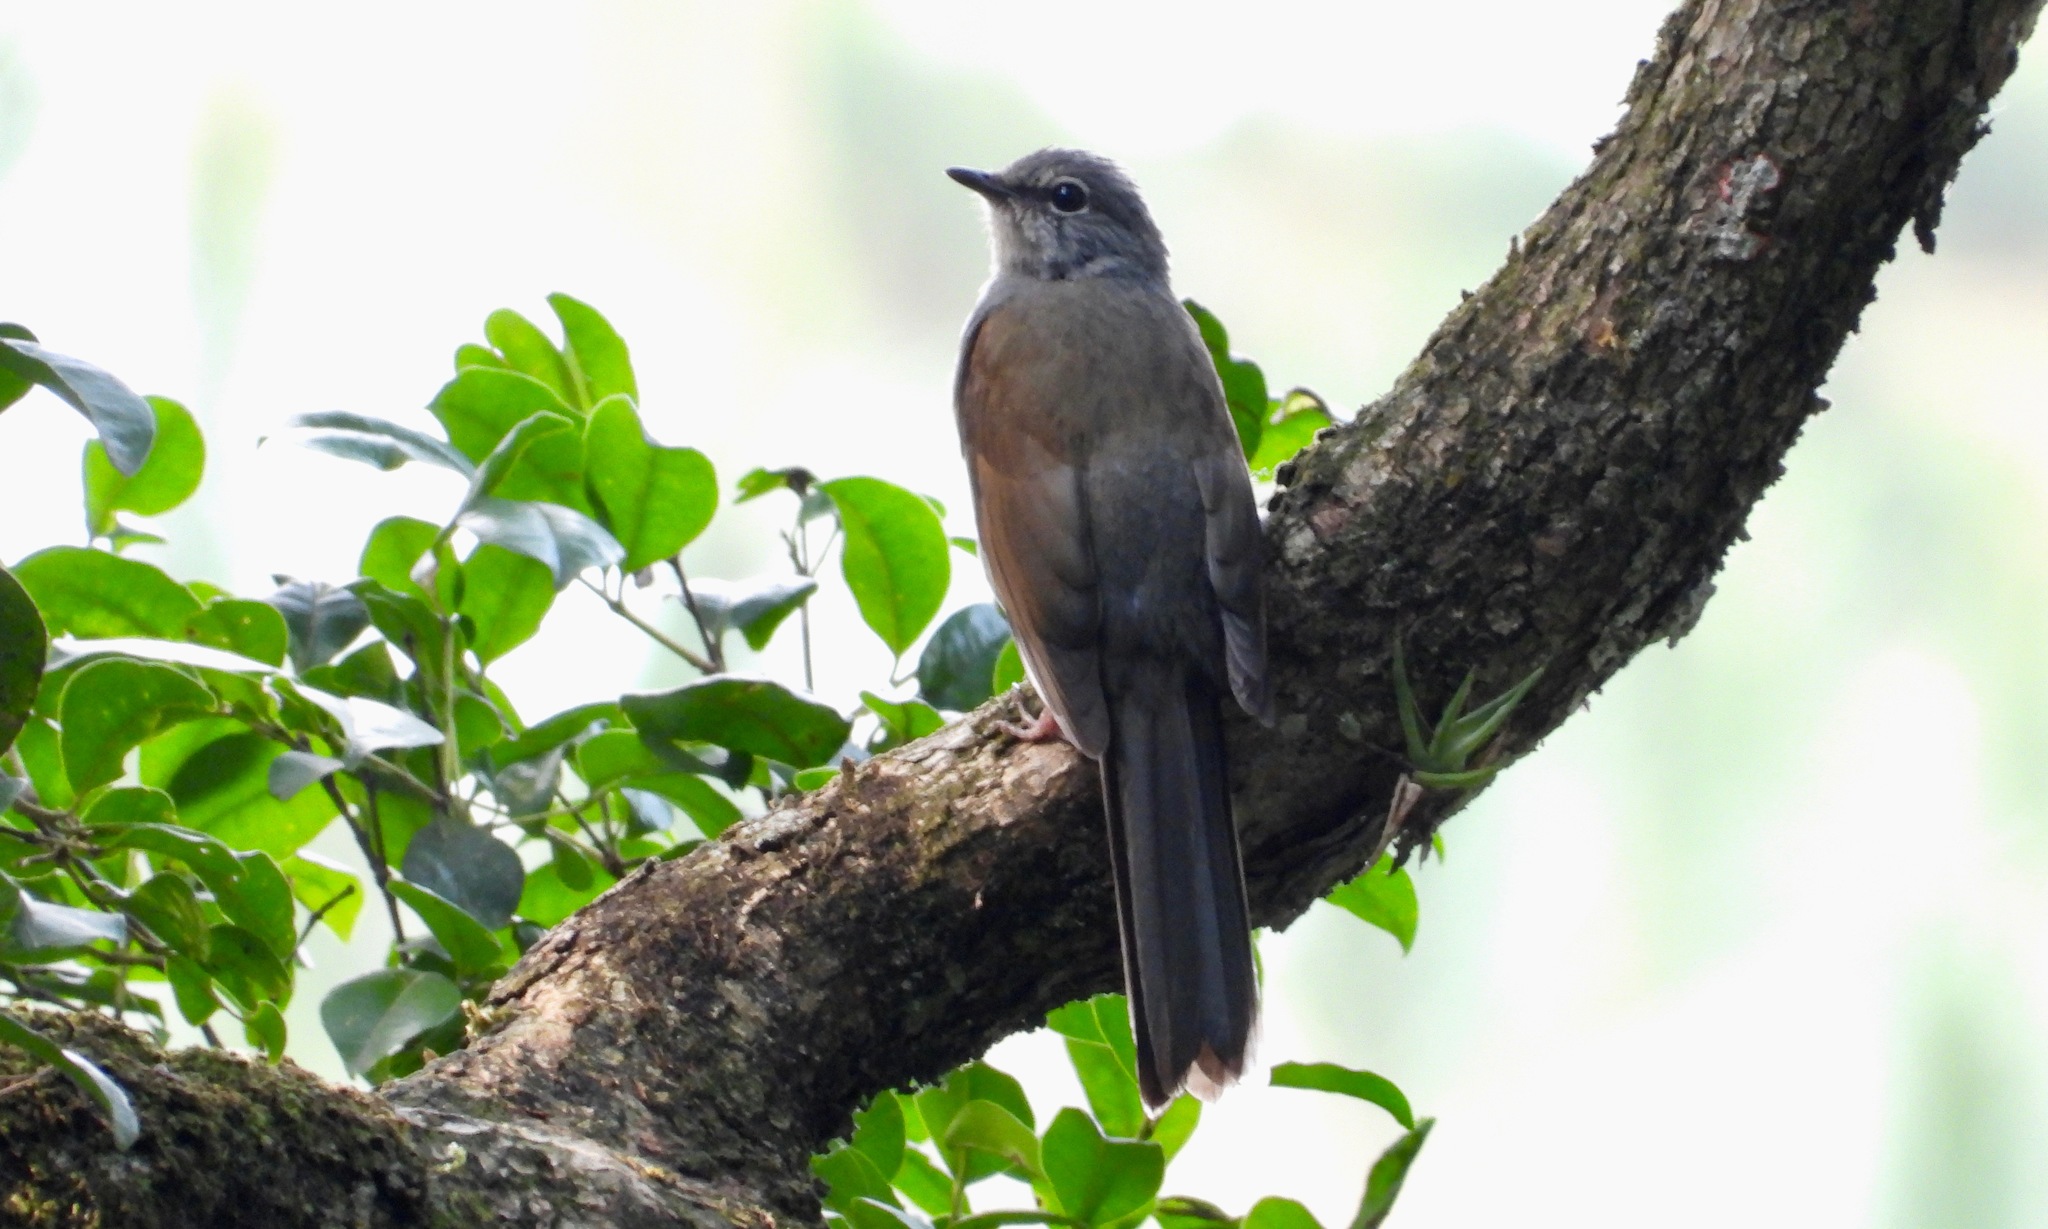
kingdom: Animalia
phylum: Chordata
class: Aves
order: Passeriformes
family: Turdidae
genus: Myadestes
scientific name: Myadestes occidentalis
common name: Brown-backed solitaire
